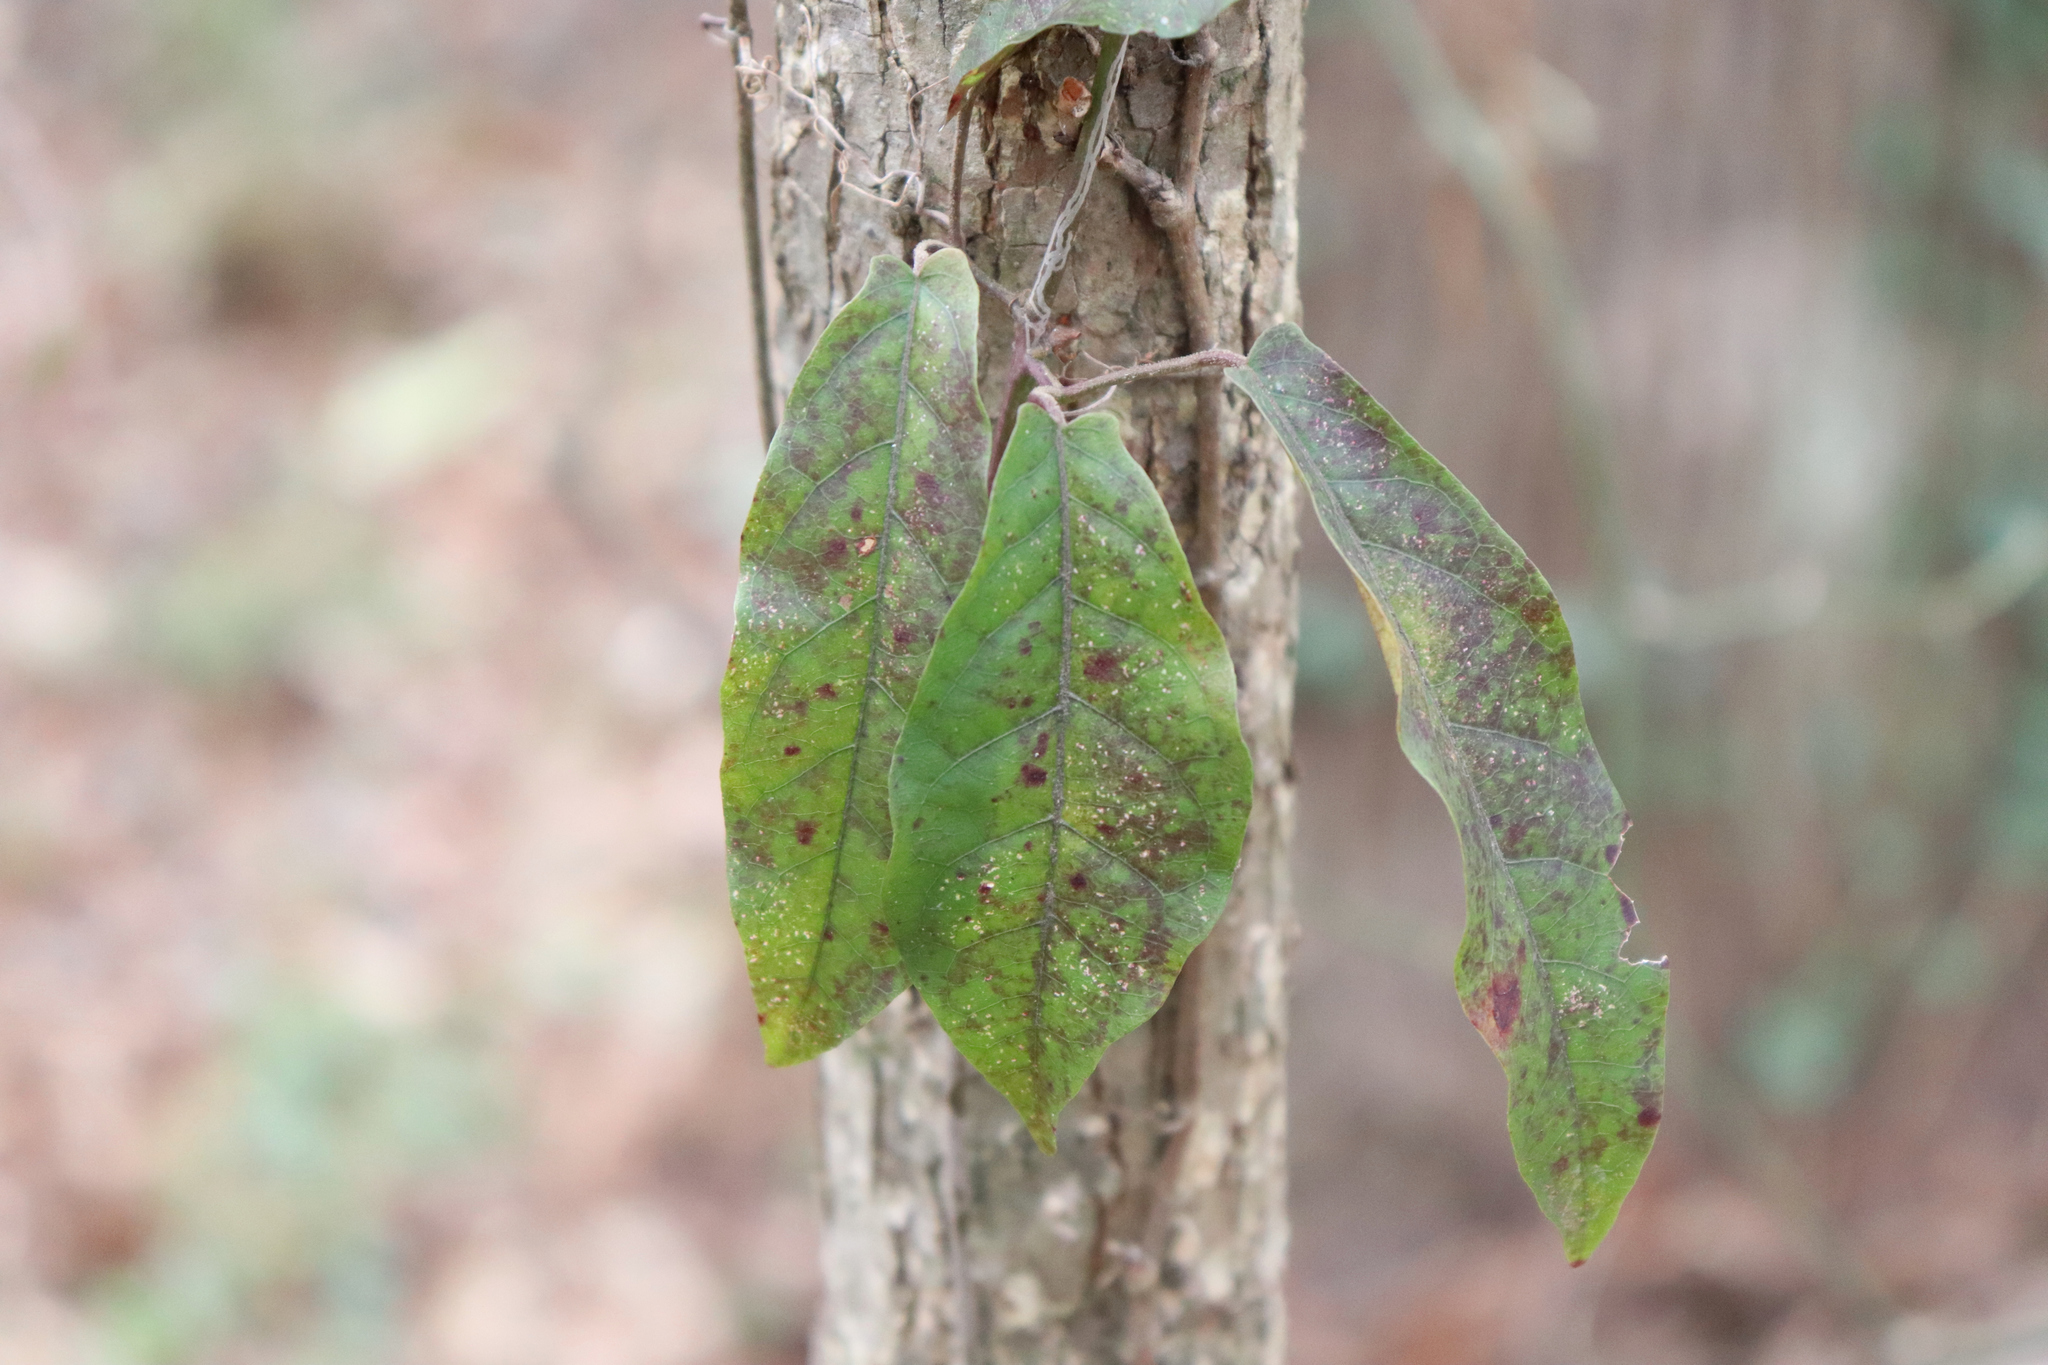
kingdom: Plantae
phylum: Tracheophyta
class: Magnoliopsida
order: Lamiales
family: Bignoniaceae
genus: Bignonia
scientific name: Bignonia capreolata
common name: Crossvine
